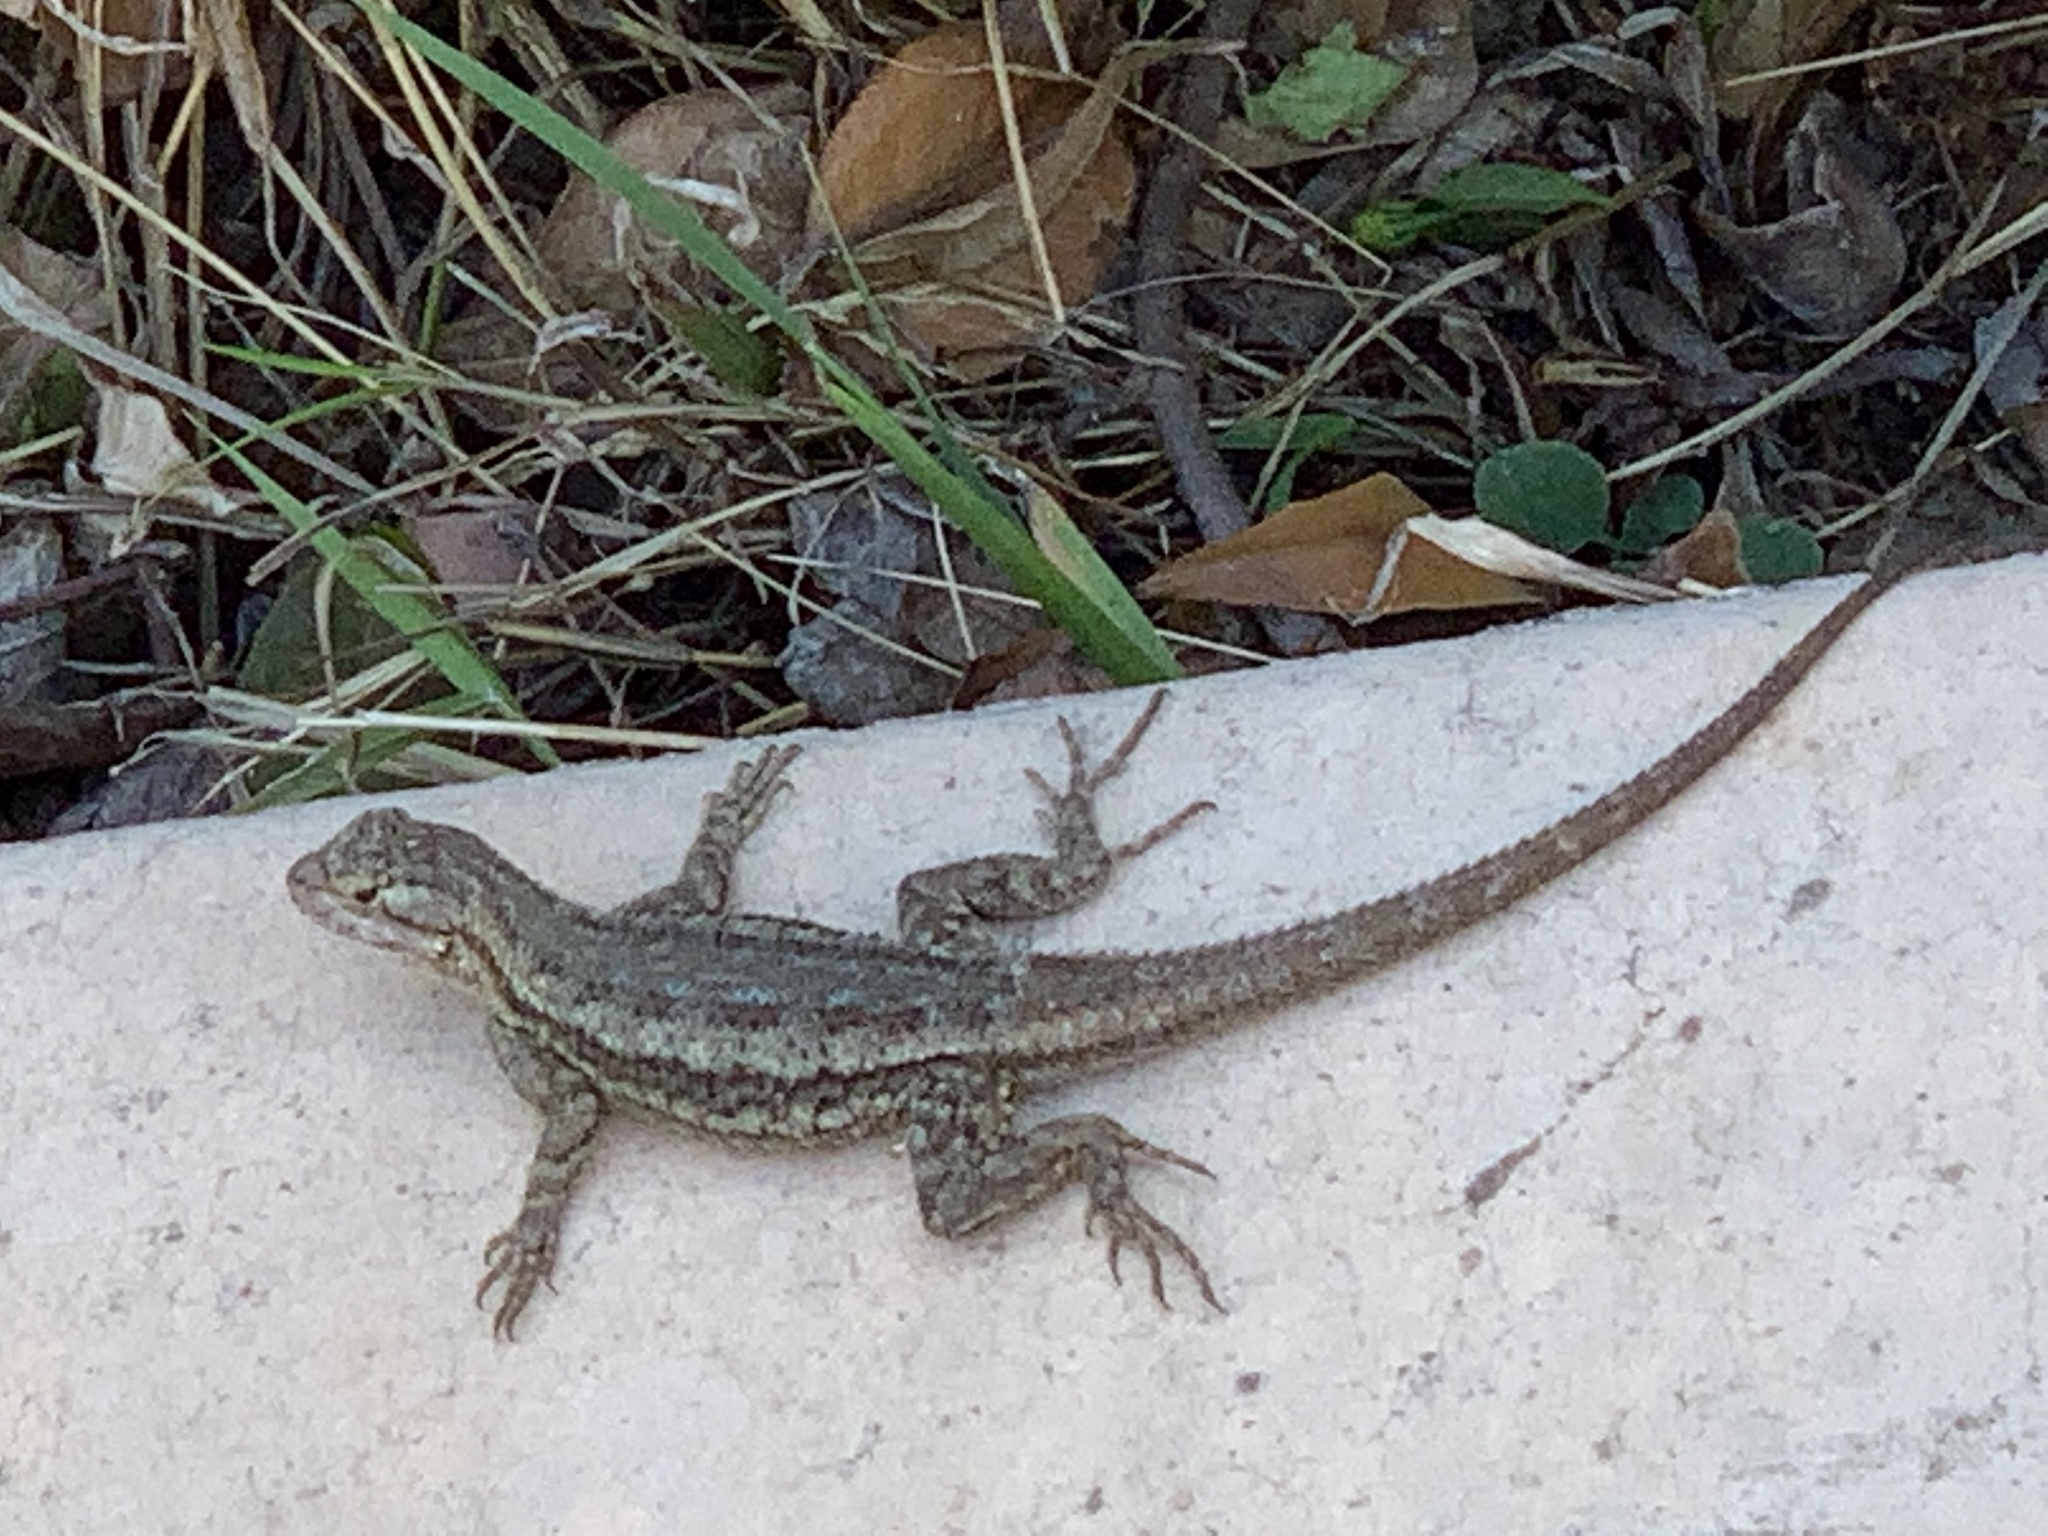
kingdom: Animalia
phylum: Chordata
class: Squamata
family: Phrynosomatidae
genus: Sceloporus
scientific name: Sceloporus occidentalis
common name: Western fence lizard
